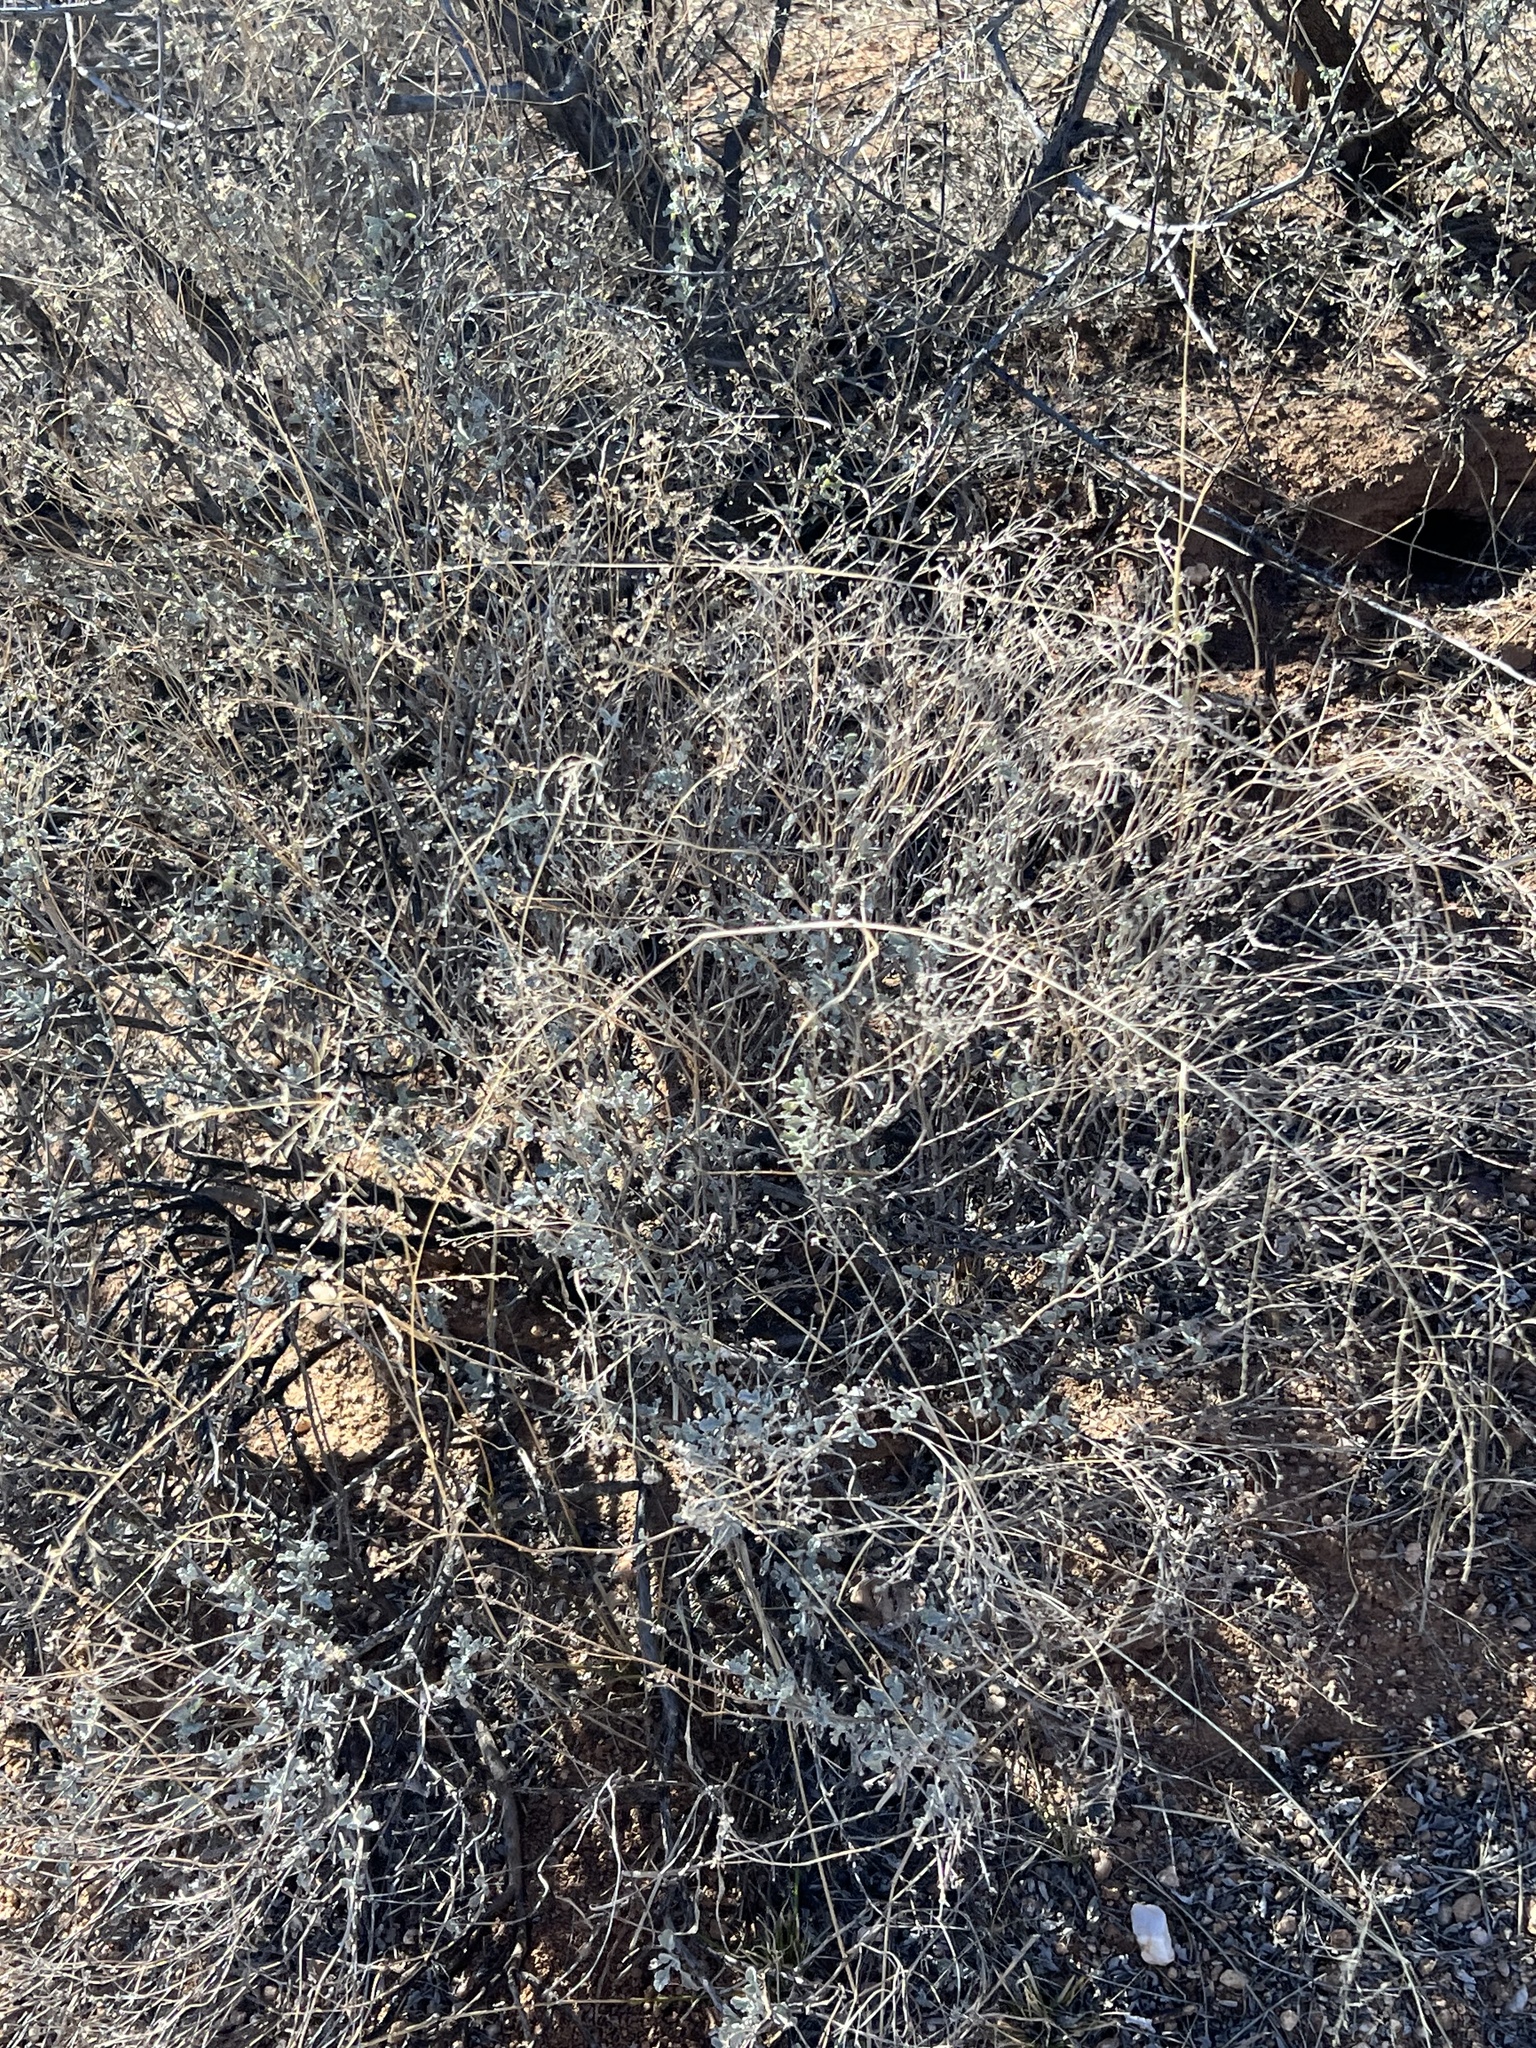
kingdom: Plantae
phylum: Tracheophyta
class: Magnoliopsida
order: Asterales
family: Asteraceae
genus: Parthenium
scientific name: Parthenium incanum
